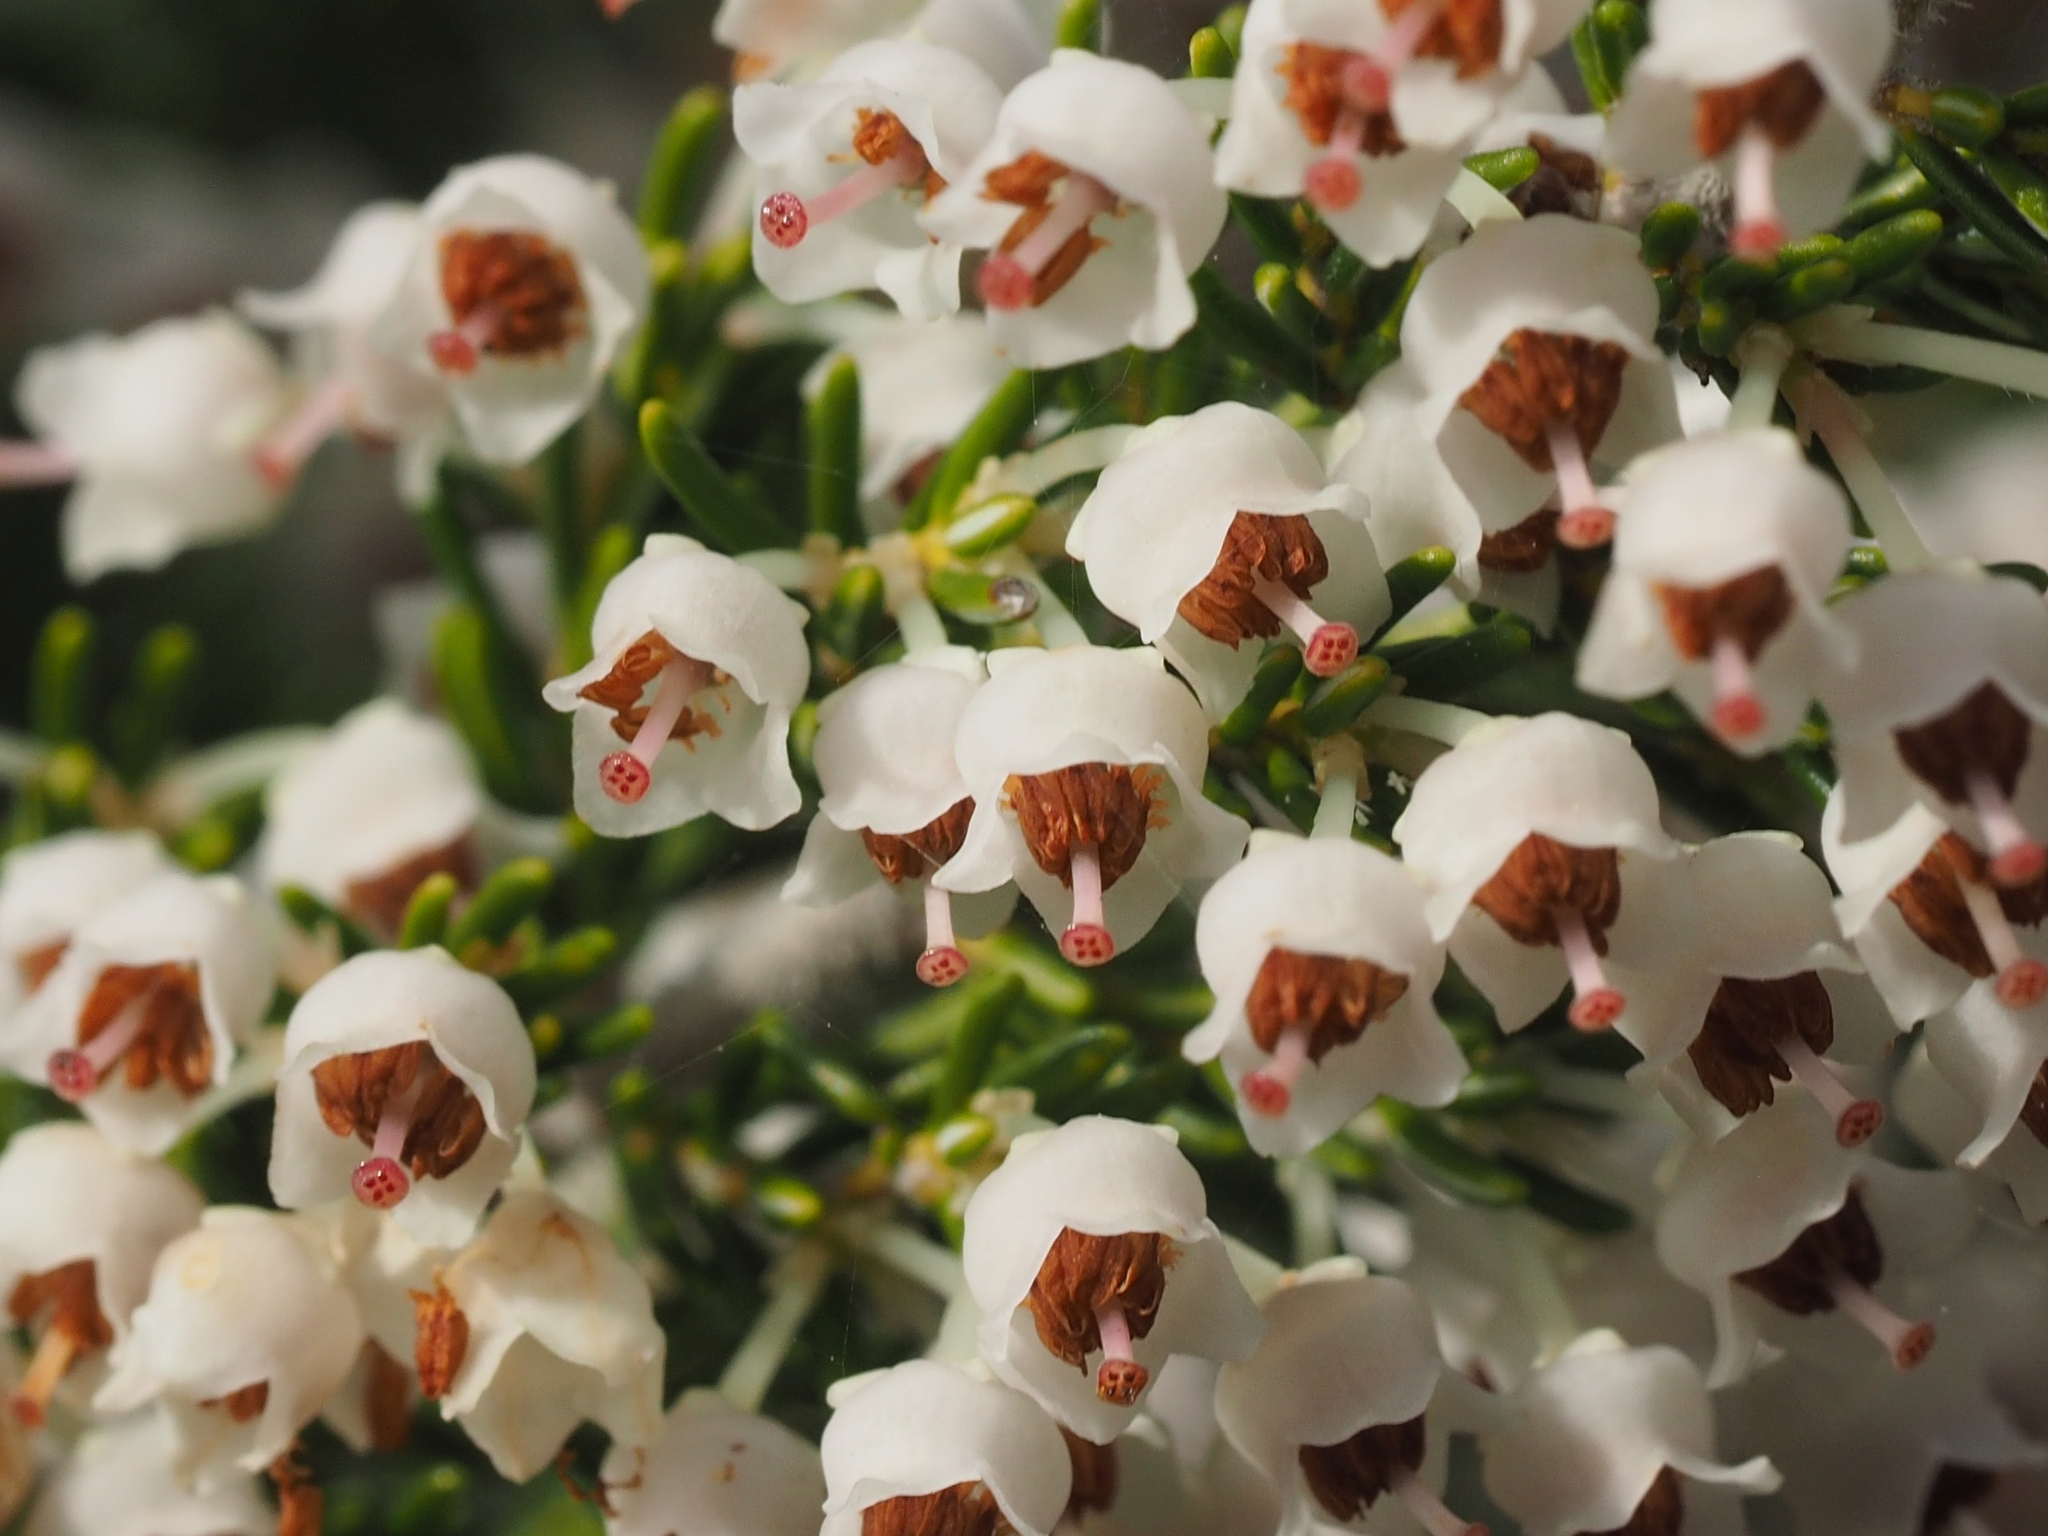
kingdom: Plantae
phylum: Tracheophyta
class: Magnoliopsida
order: Ericales
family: Ericaceae
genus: Erica
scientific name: Erica arborea
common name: Tree heath
